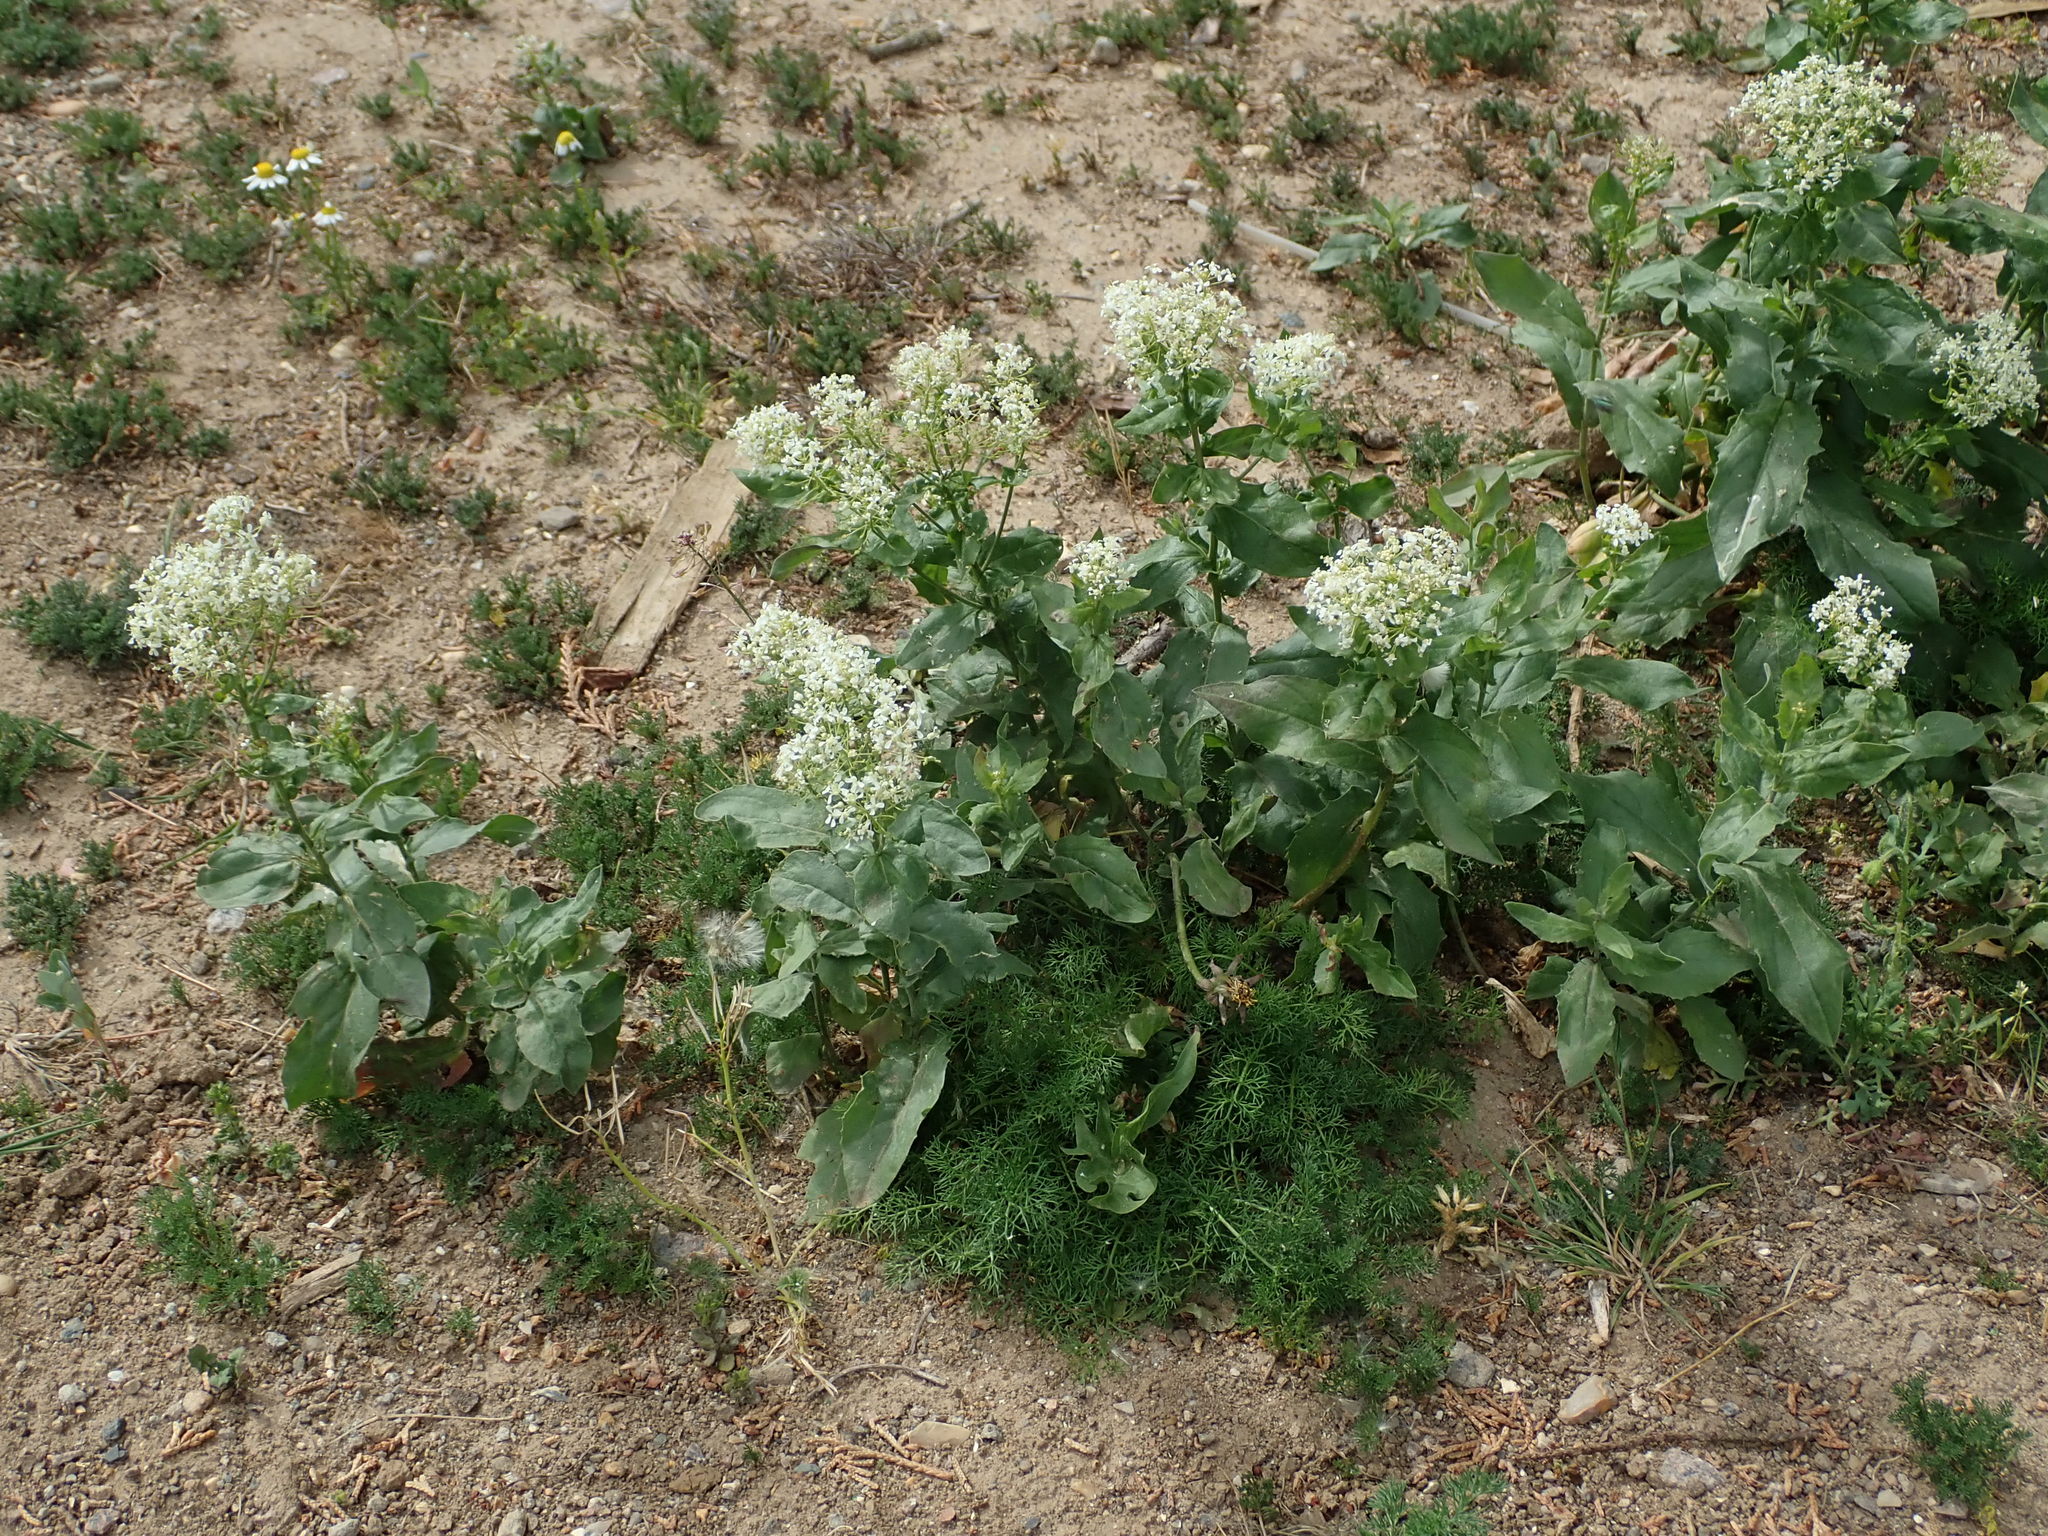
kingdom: Plantae
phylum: Tracheophyta
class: Magnoliopsida
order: Brassicales
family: Brassicaceae
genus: Lepidium
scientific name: Lepidium draba
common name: Hoary cress
